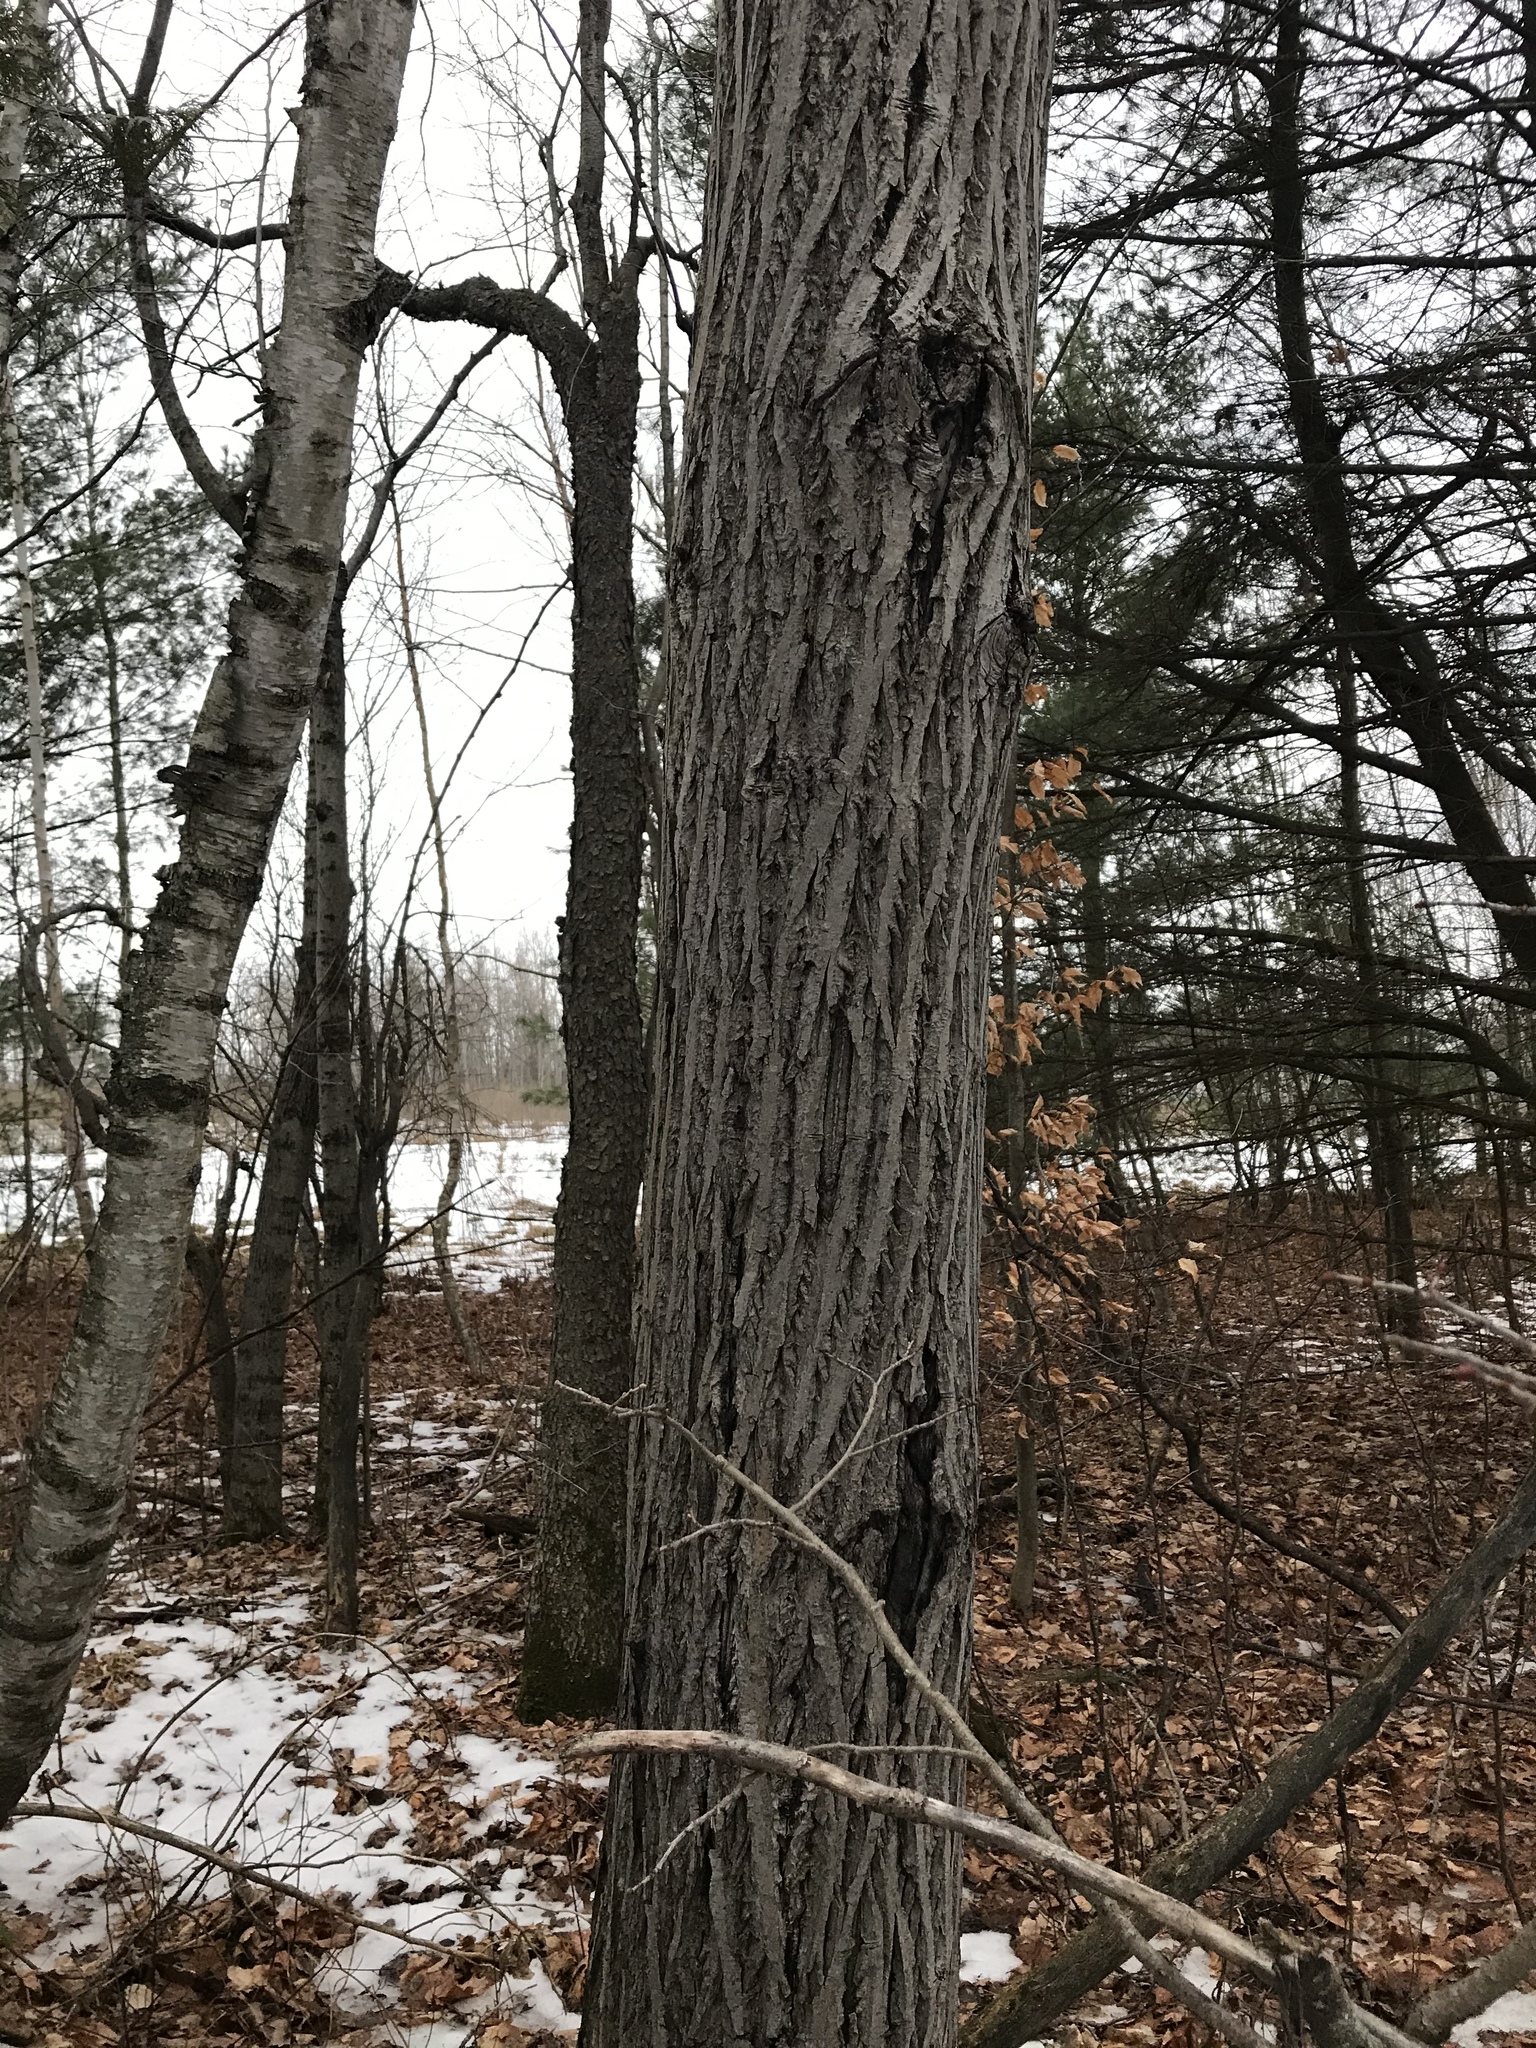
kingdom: Plantae
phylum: Tracheophyta
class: Magnoliopsida
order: Fagales
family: Juglandaceae
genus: Juglans
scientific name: Juglans cinerea
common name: Butternut
